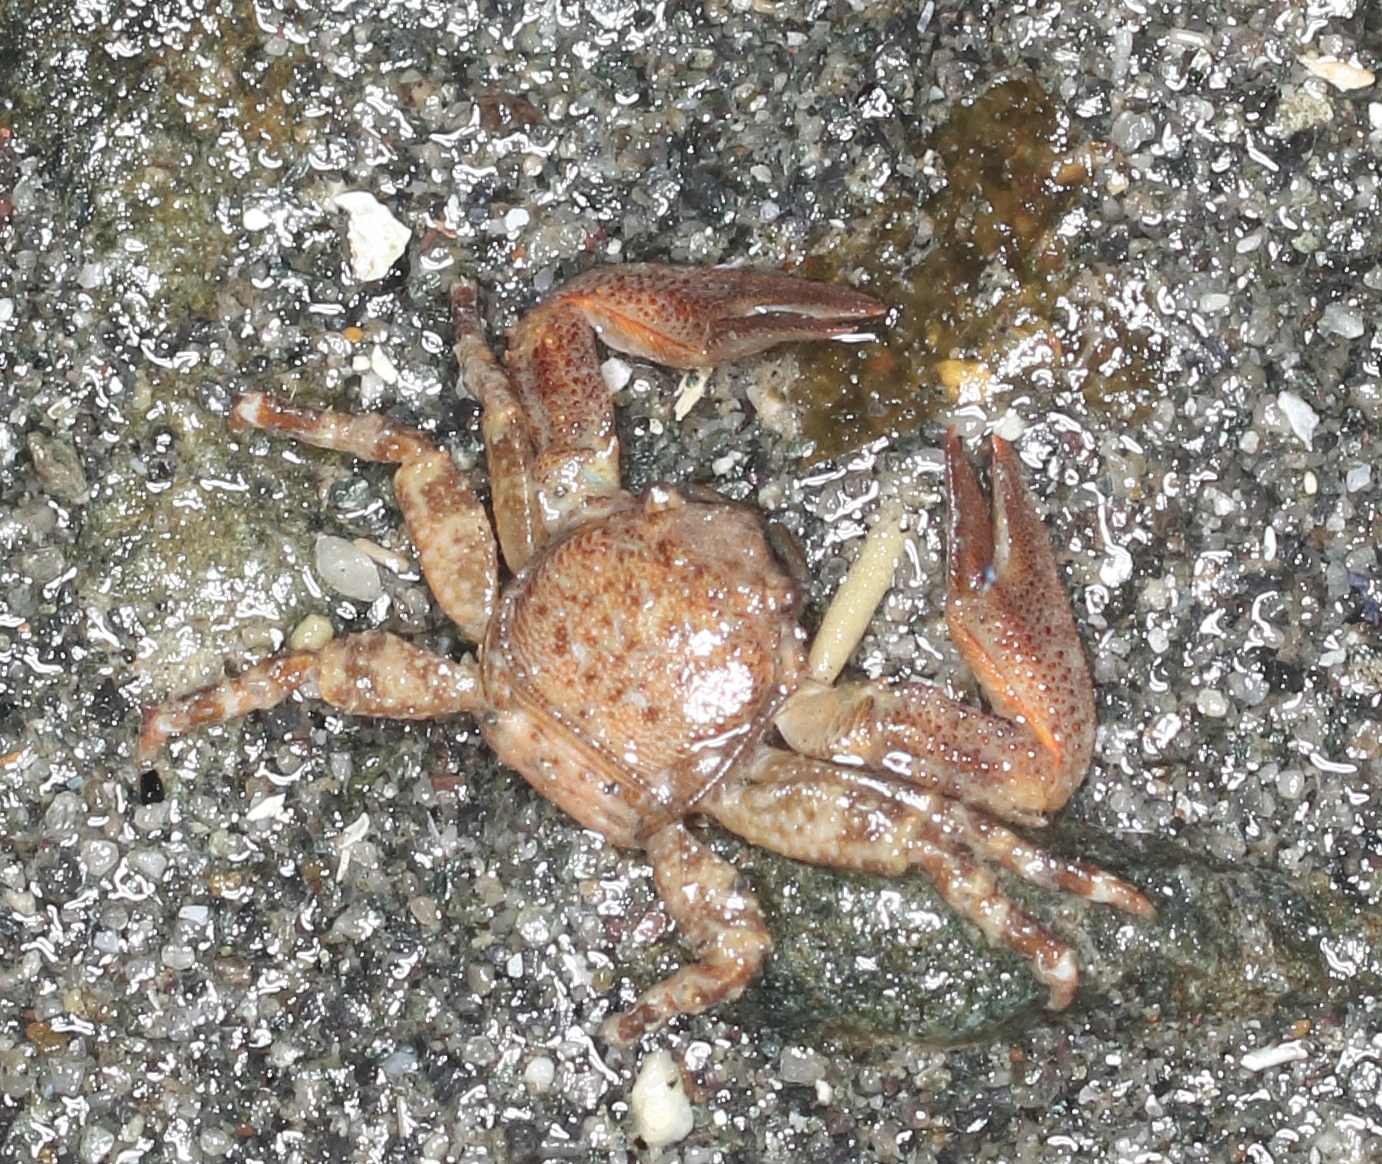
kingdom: Animalia
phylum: Arthropoda
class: Malacostraca
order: Decapoda
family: Porcellanidae
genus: Petrolisthes
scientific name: Petrolisthes eriomerus
